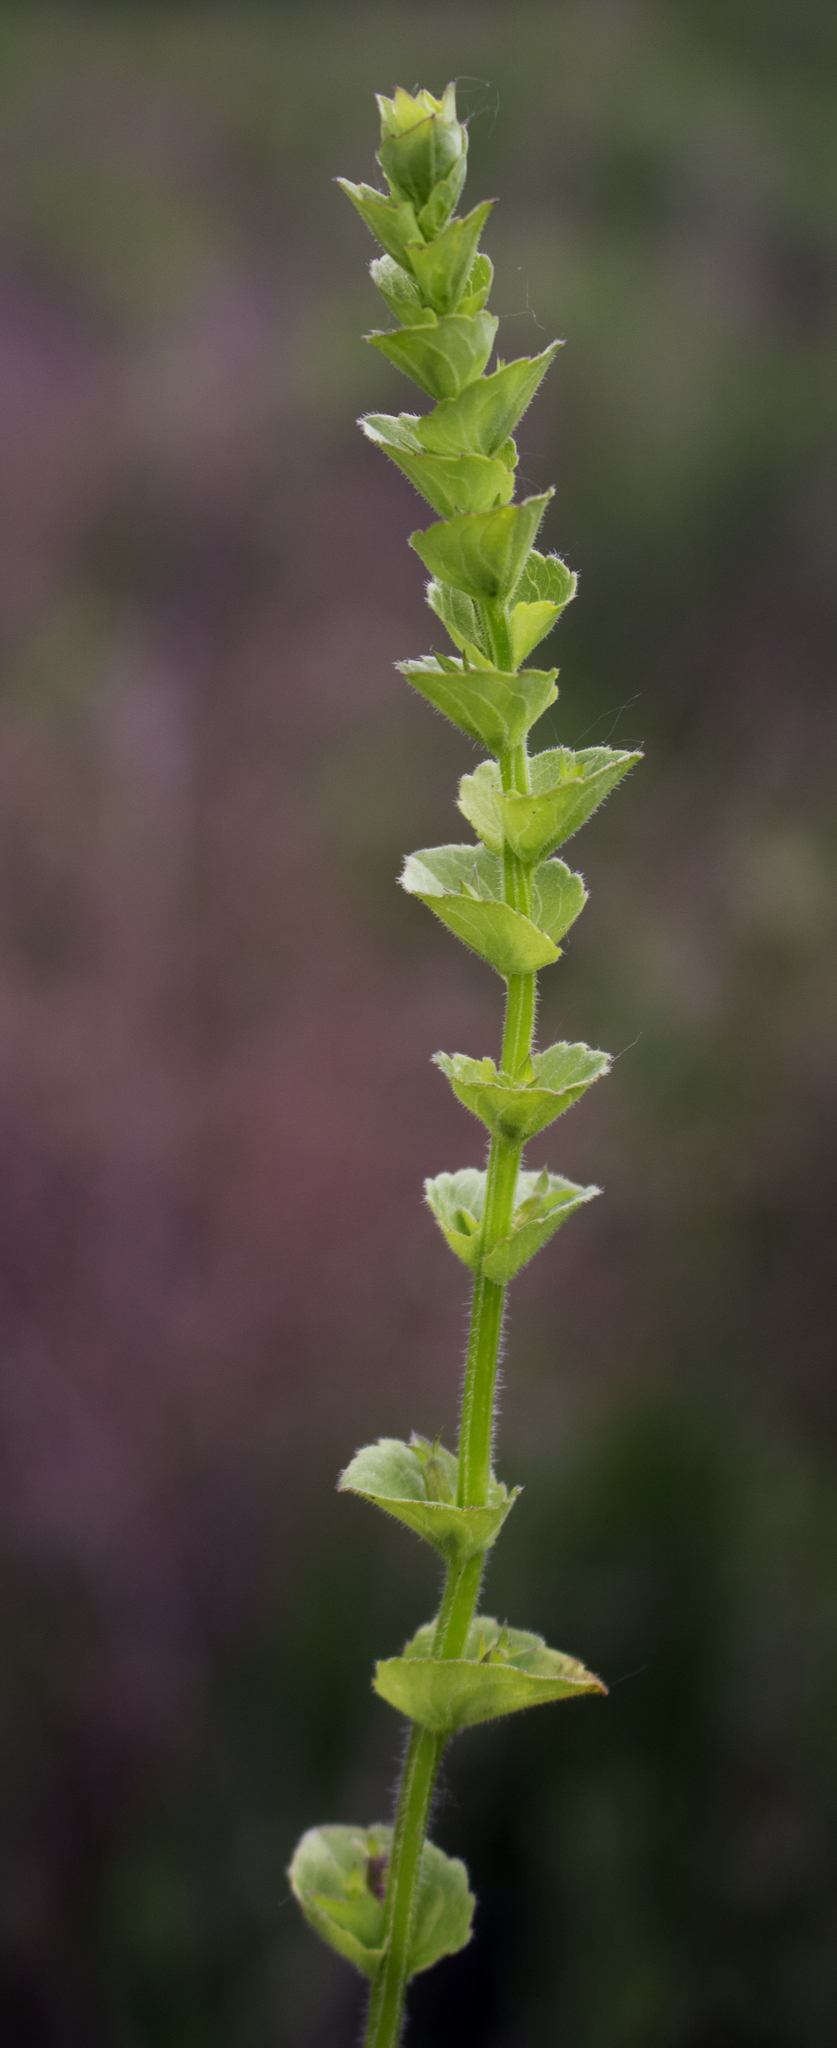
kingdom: Plantae
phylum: Tracheophyta
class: Magnoliopsida
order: Asterales
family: Campanulaceae
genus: Triodanis
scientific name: Triodanis perfoliata
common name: Clasping venus' looking-glass
